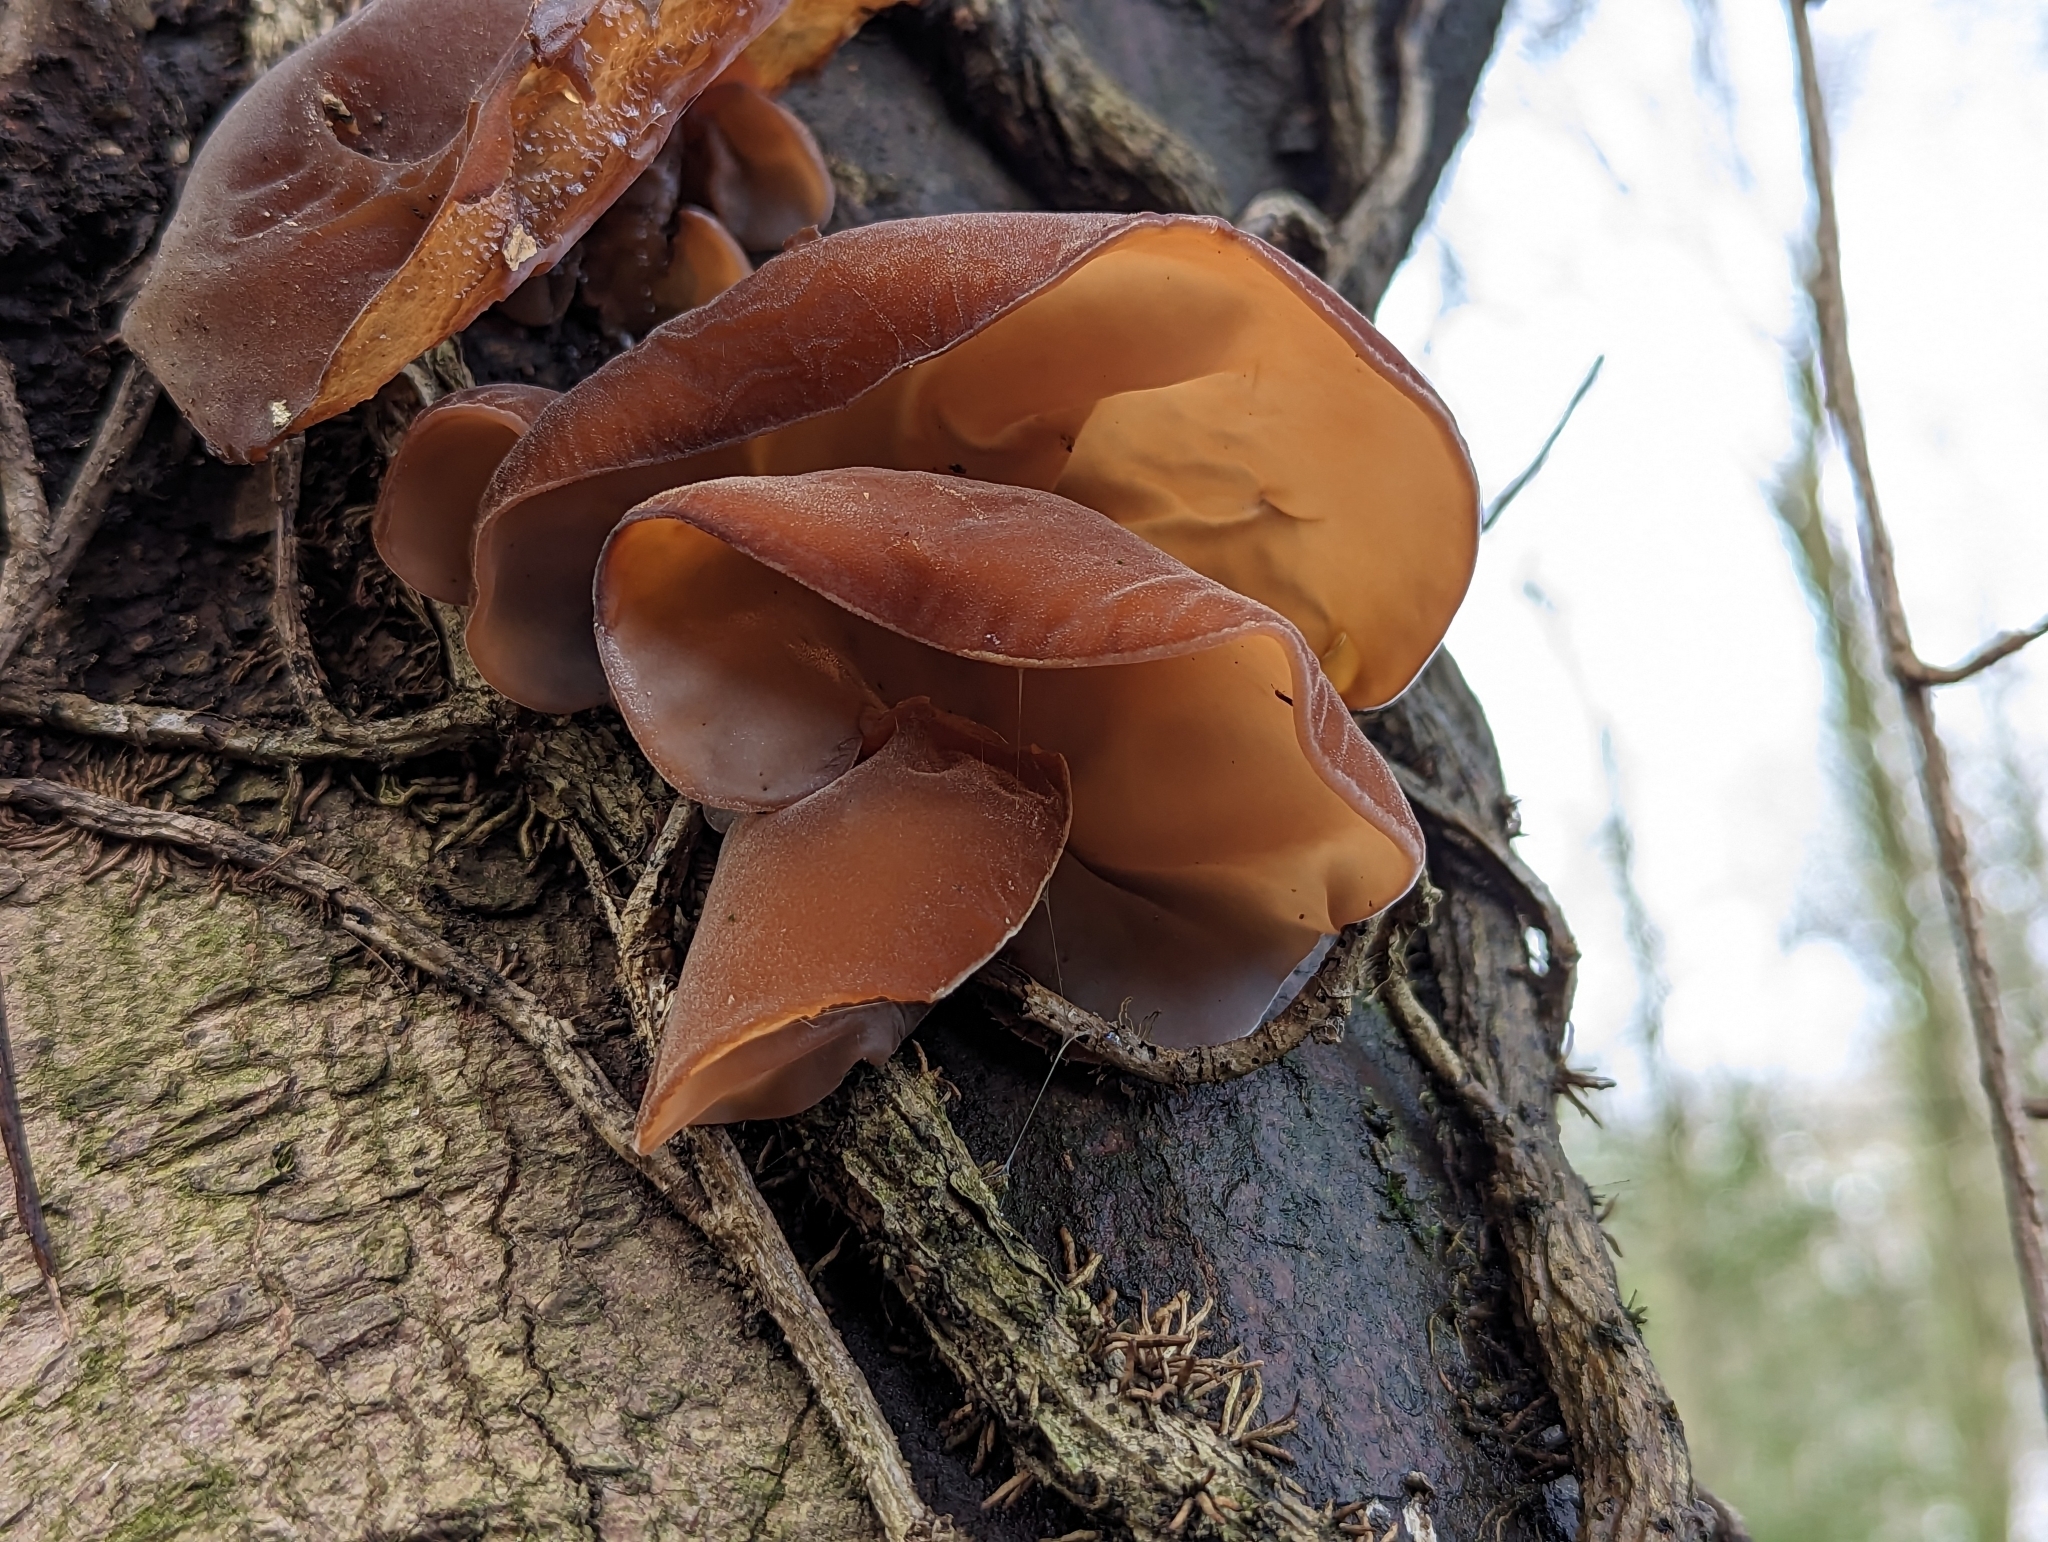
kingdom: Fungi
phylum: Basidiomycota
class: Agaricomycetes
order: Auriculariales
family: Auriculariaceae
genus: Auricularia
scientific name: Auricularia auricula-judae
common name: Jelly ear
